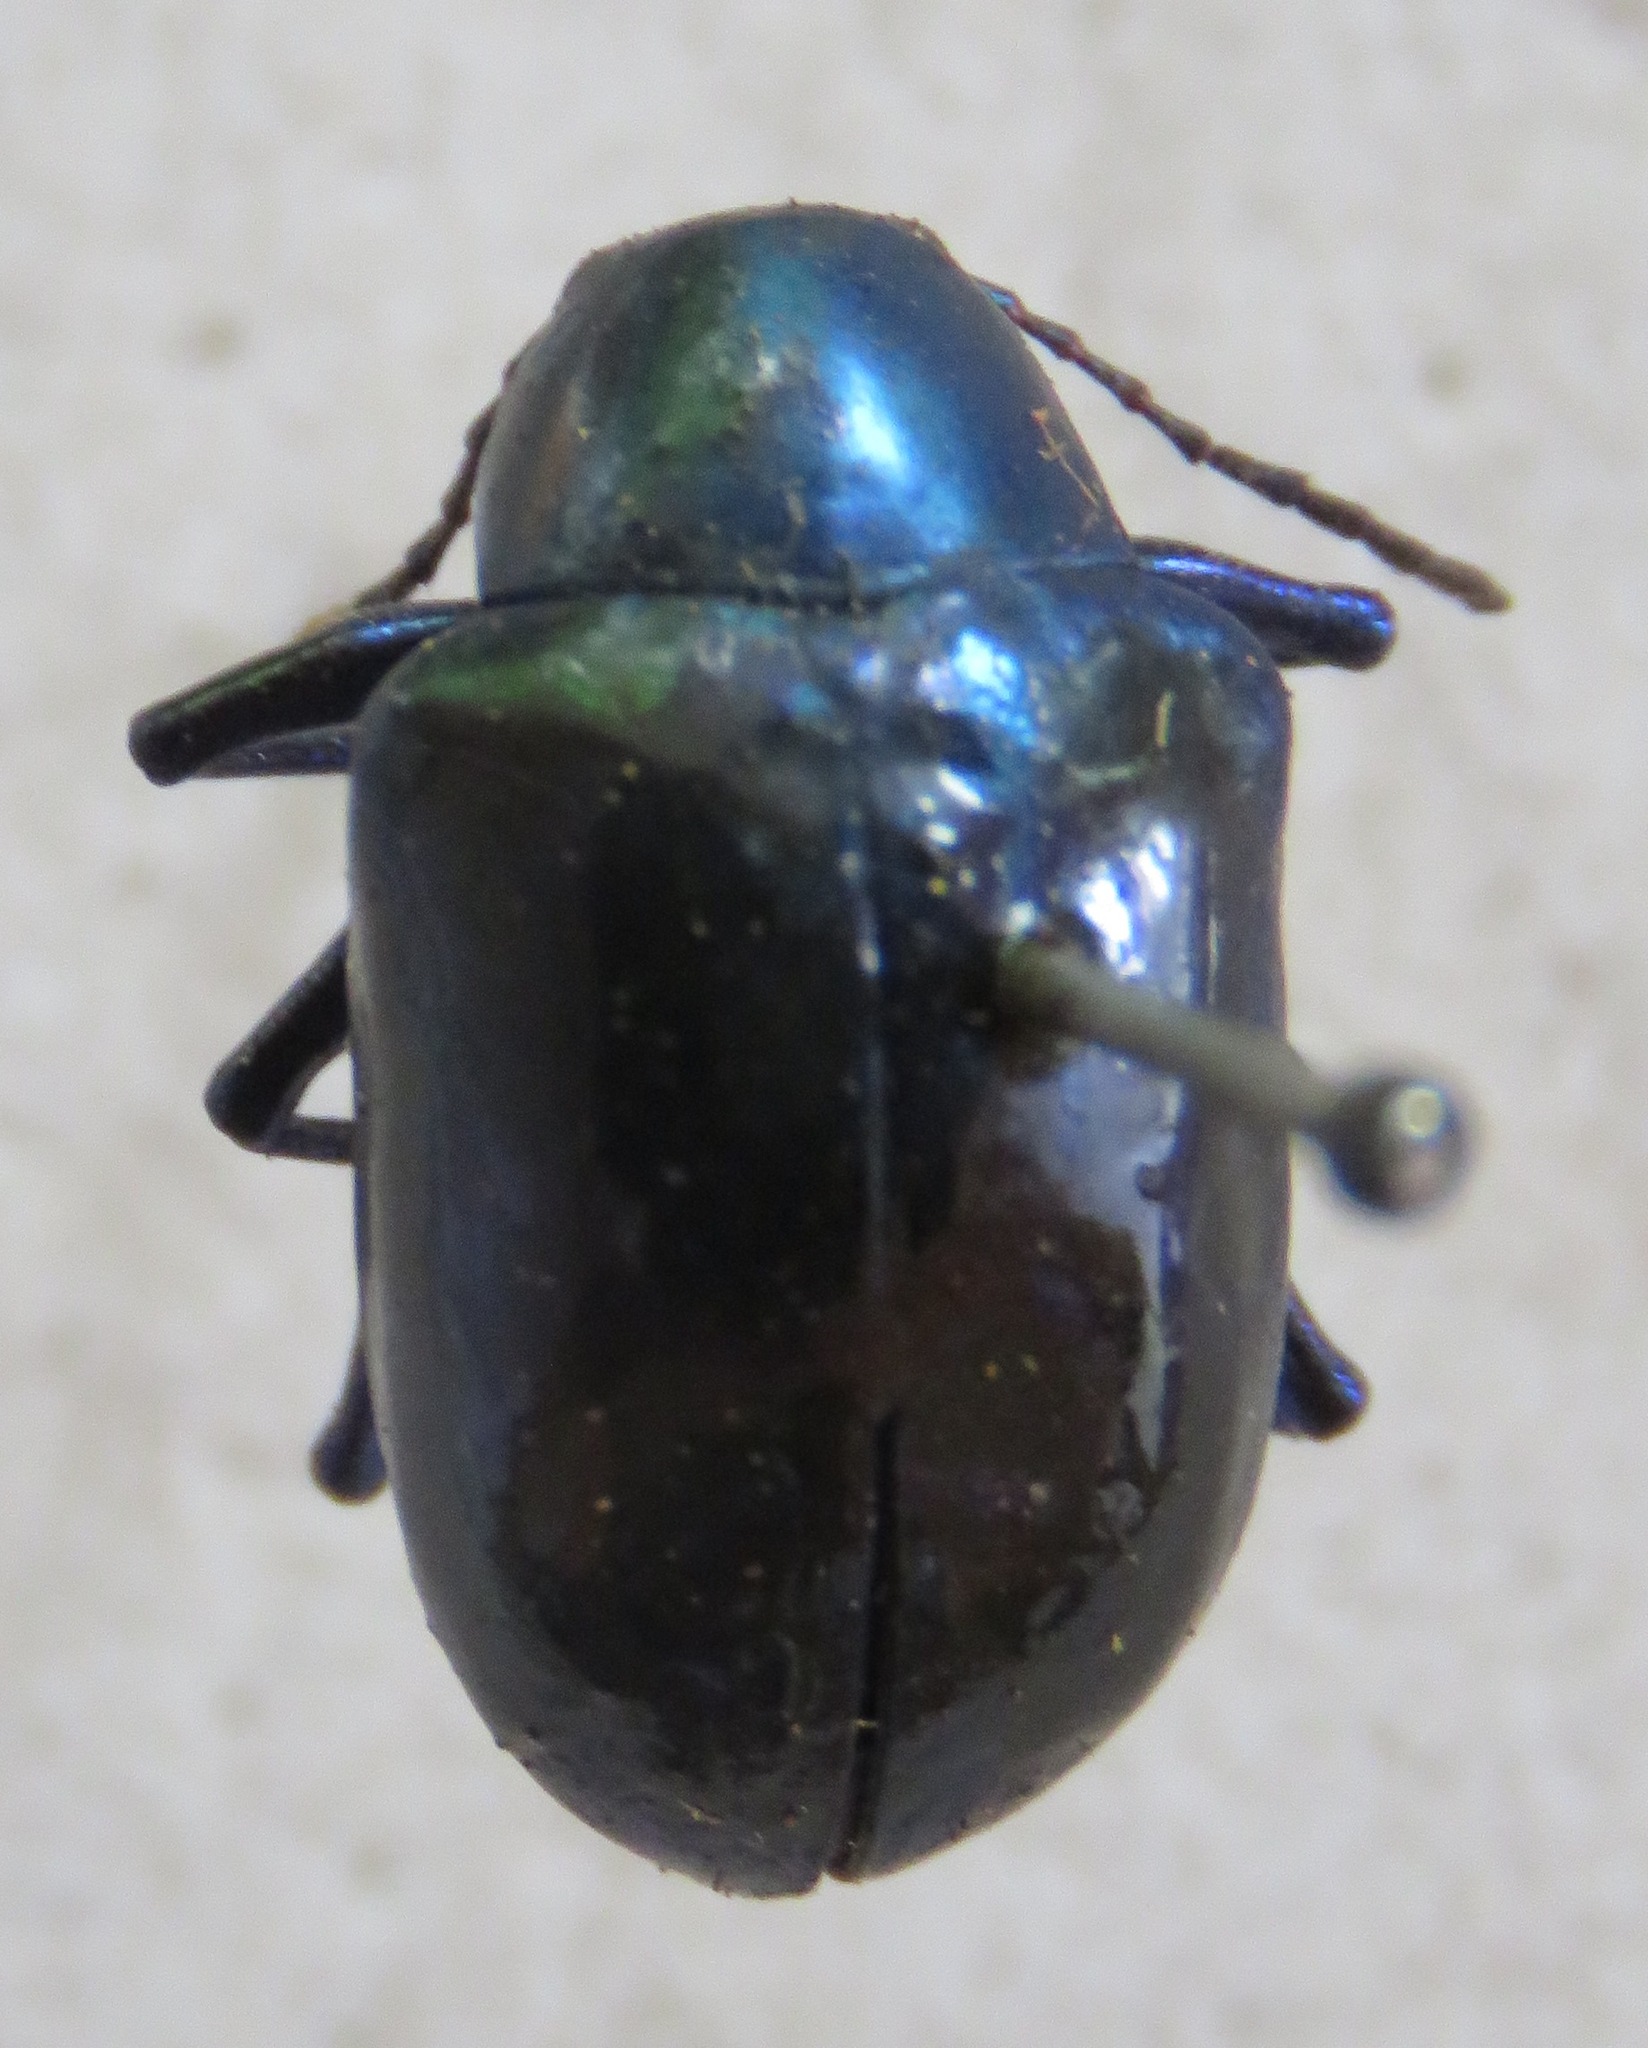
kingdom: Animalia
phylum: Arthropoda
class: Insecta
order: Coleoptera
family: Chrysomelidae
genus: Eumolpus
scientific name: Eumolpus robustus
